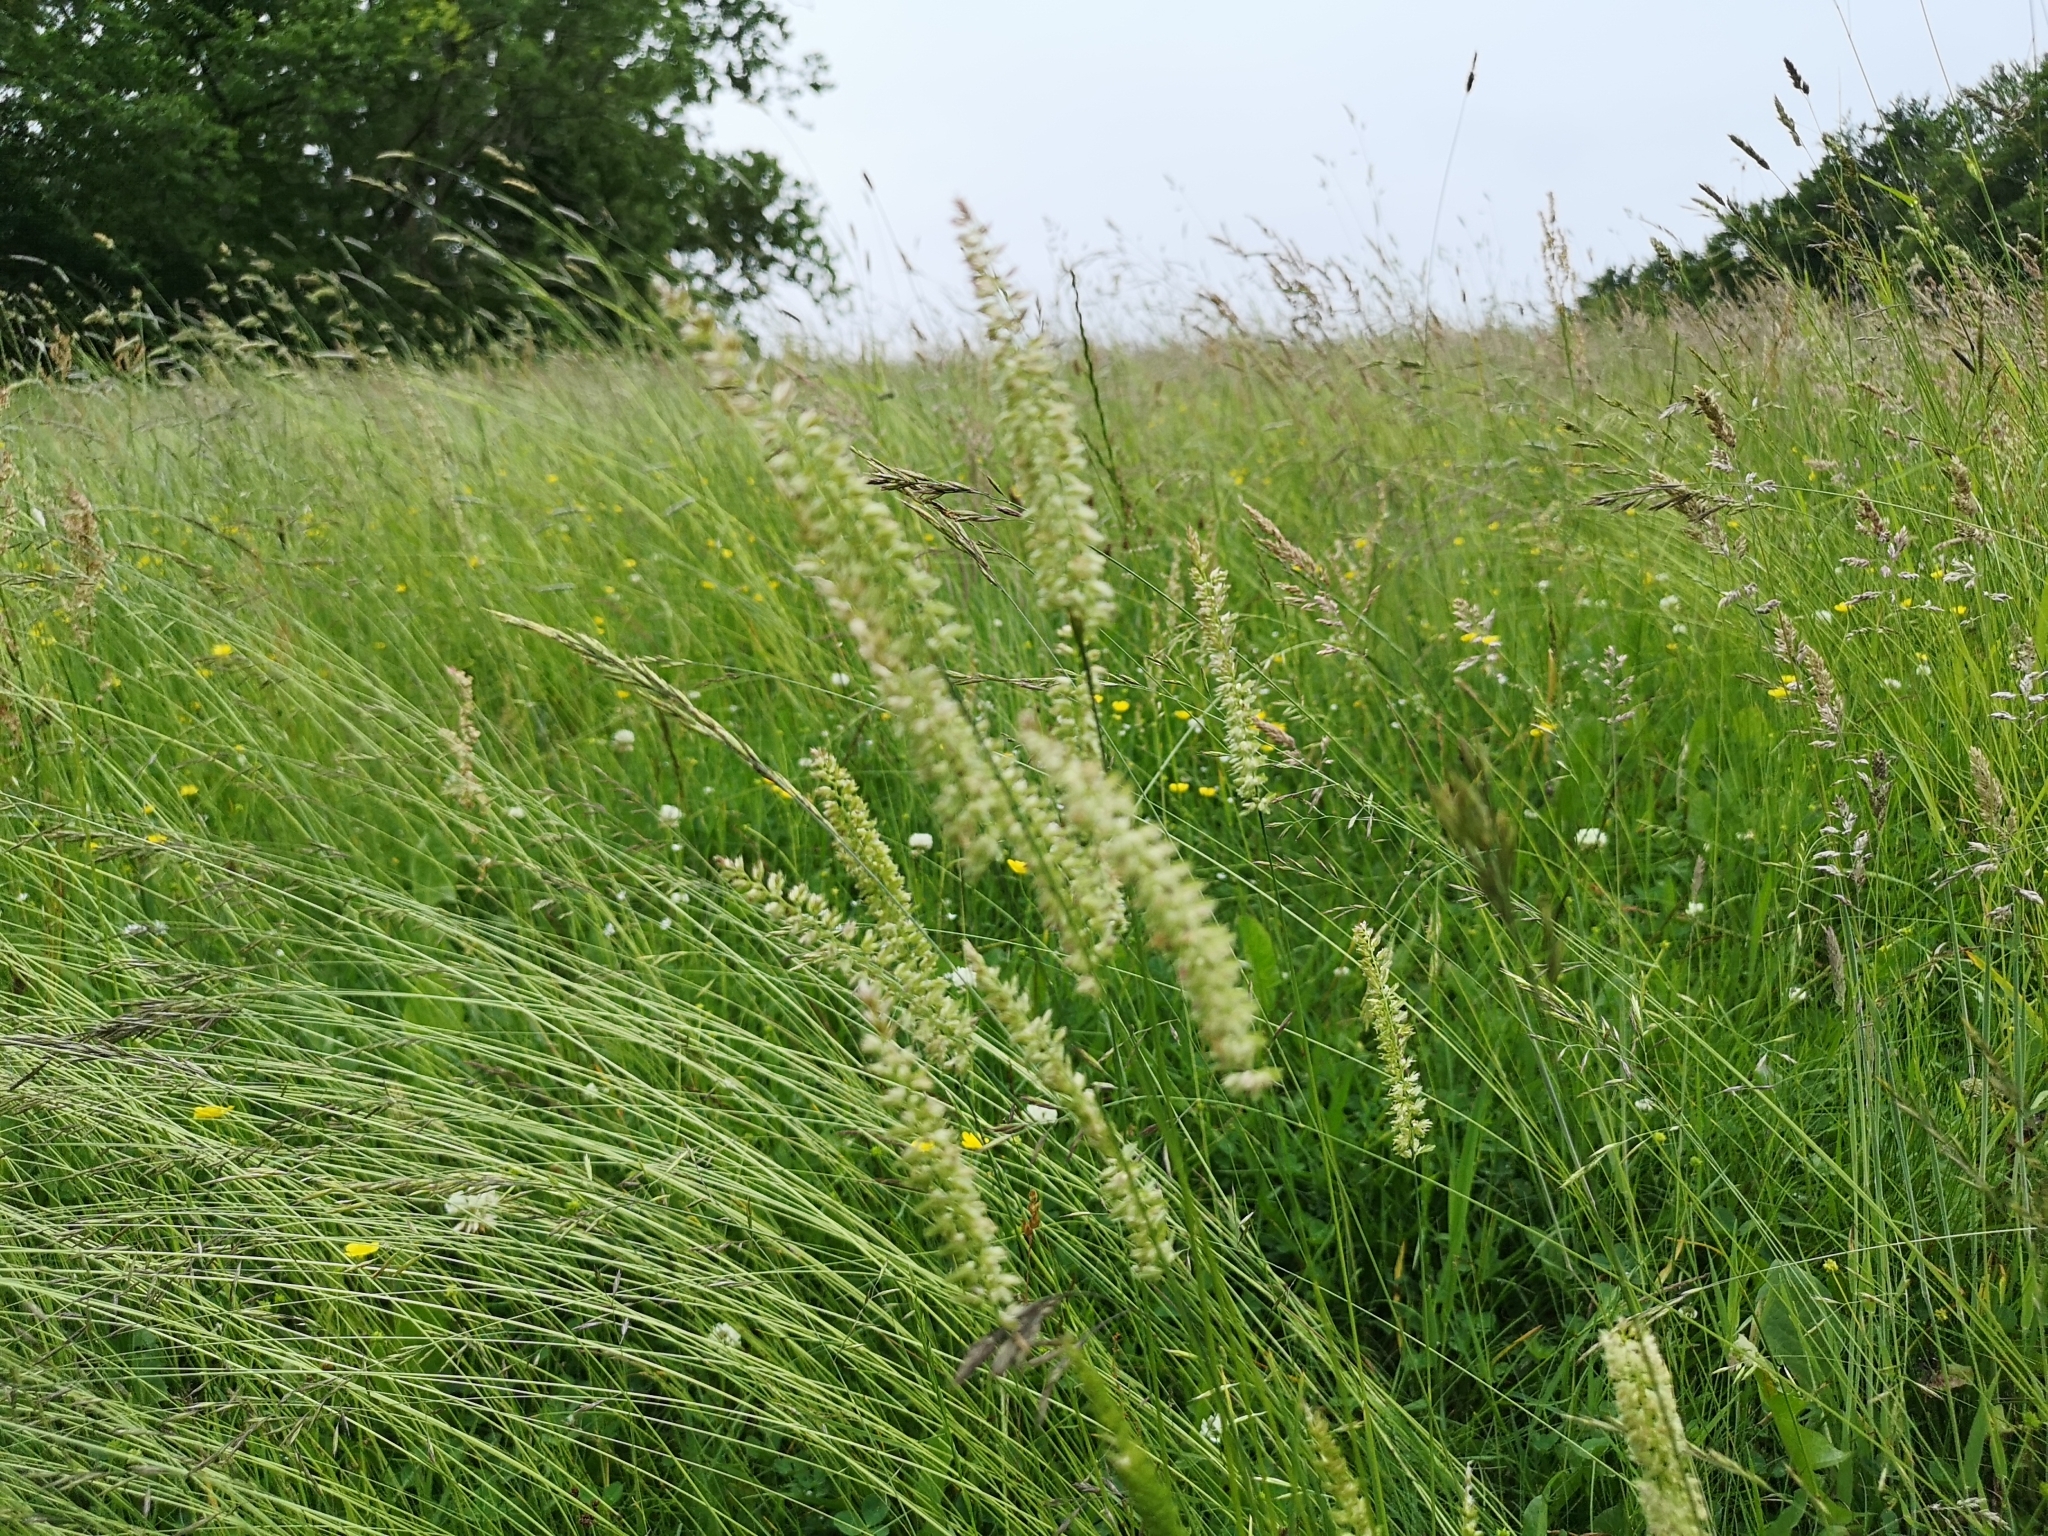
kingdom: Plantae
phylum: Tracheophyta
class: Liliopsida
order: Poales
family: Poaceae
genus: Cynosurus
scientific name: Cynosurus cristatus
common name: Crested dog's-tail
